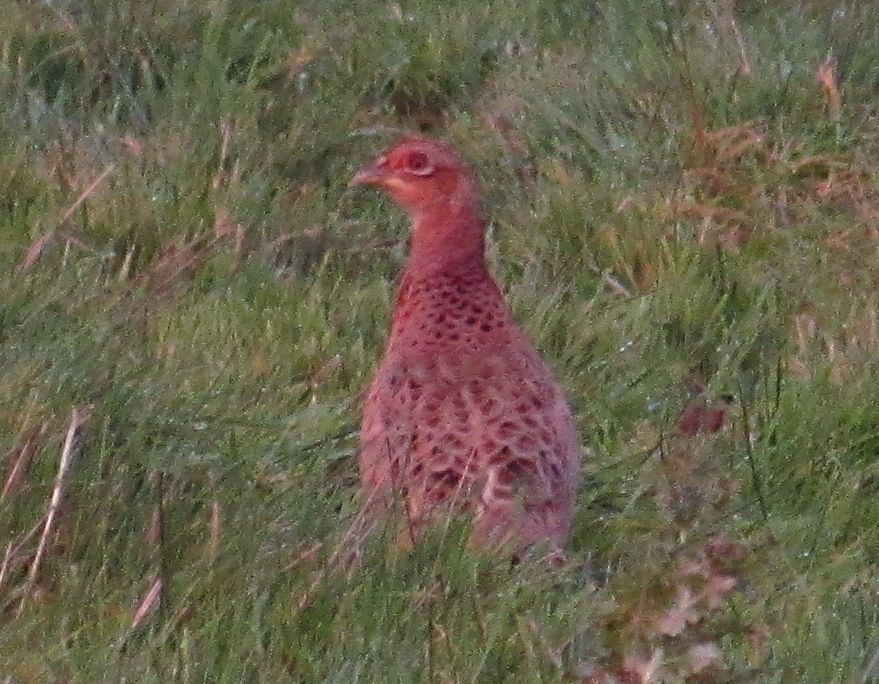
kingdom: Animalia
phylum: Chordata
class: Aves
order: Galliformes
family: Phasianidae
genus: Phasianus
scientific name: Phasianus colchicus
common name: Common pheasant
